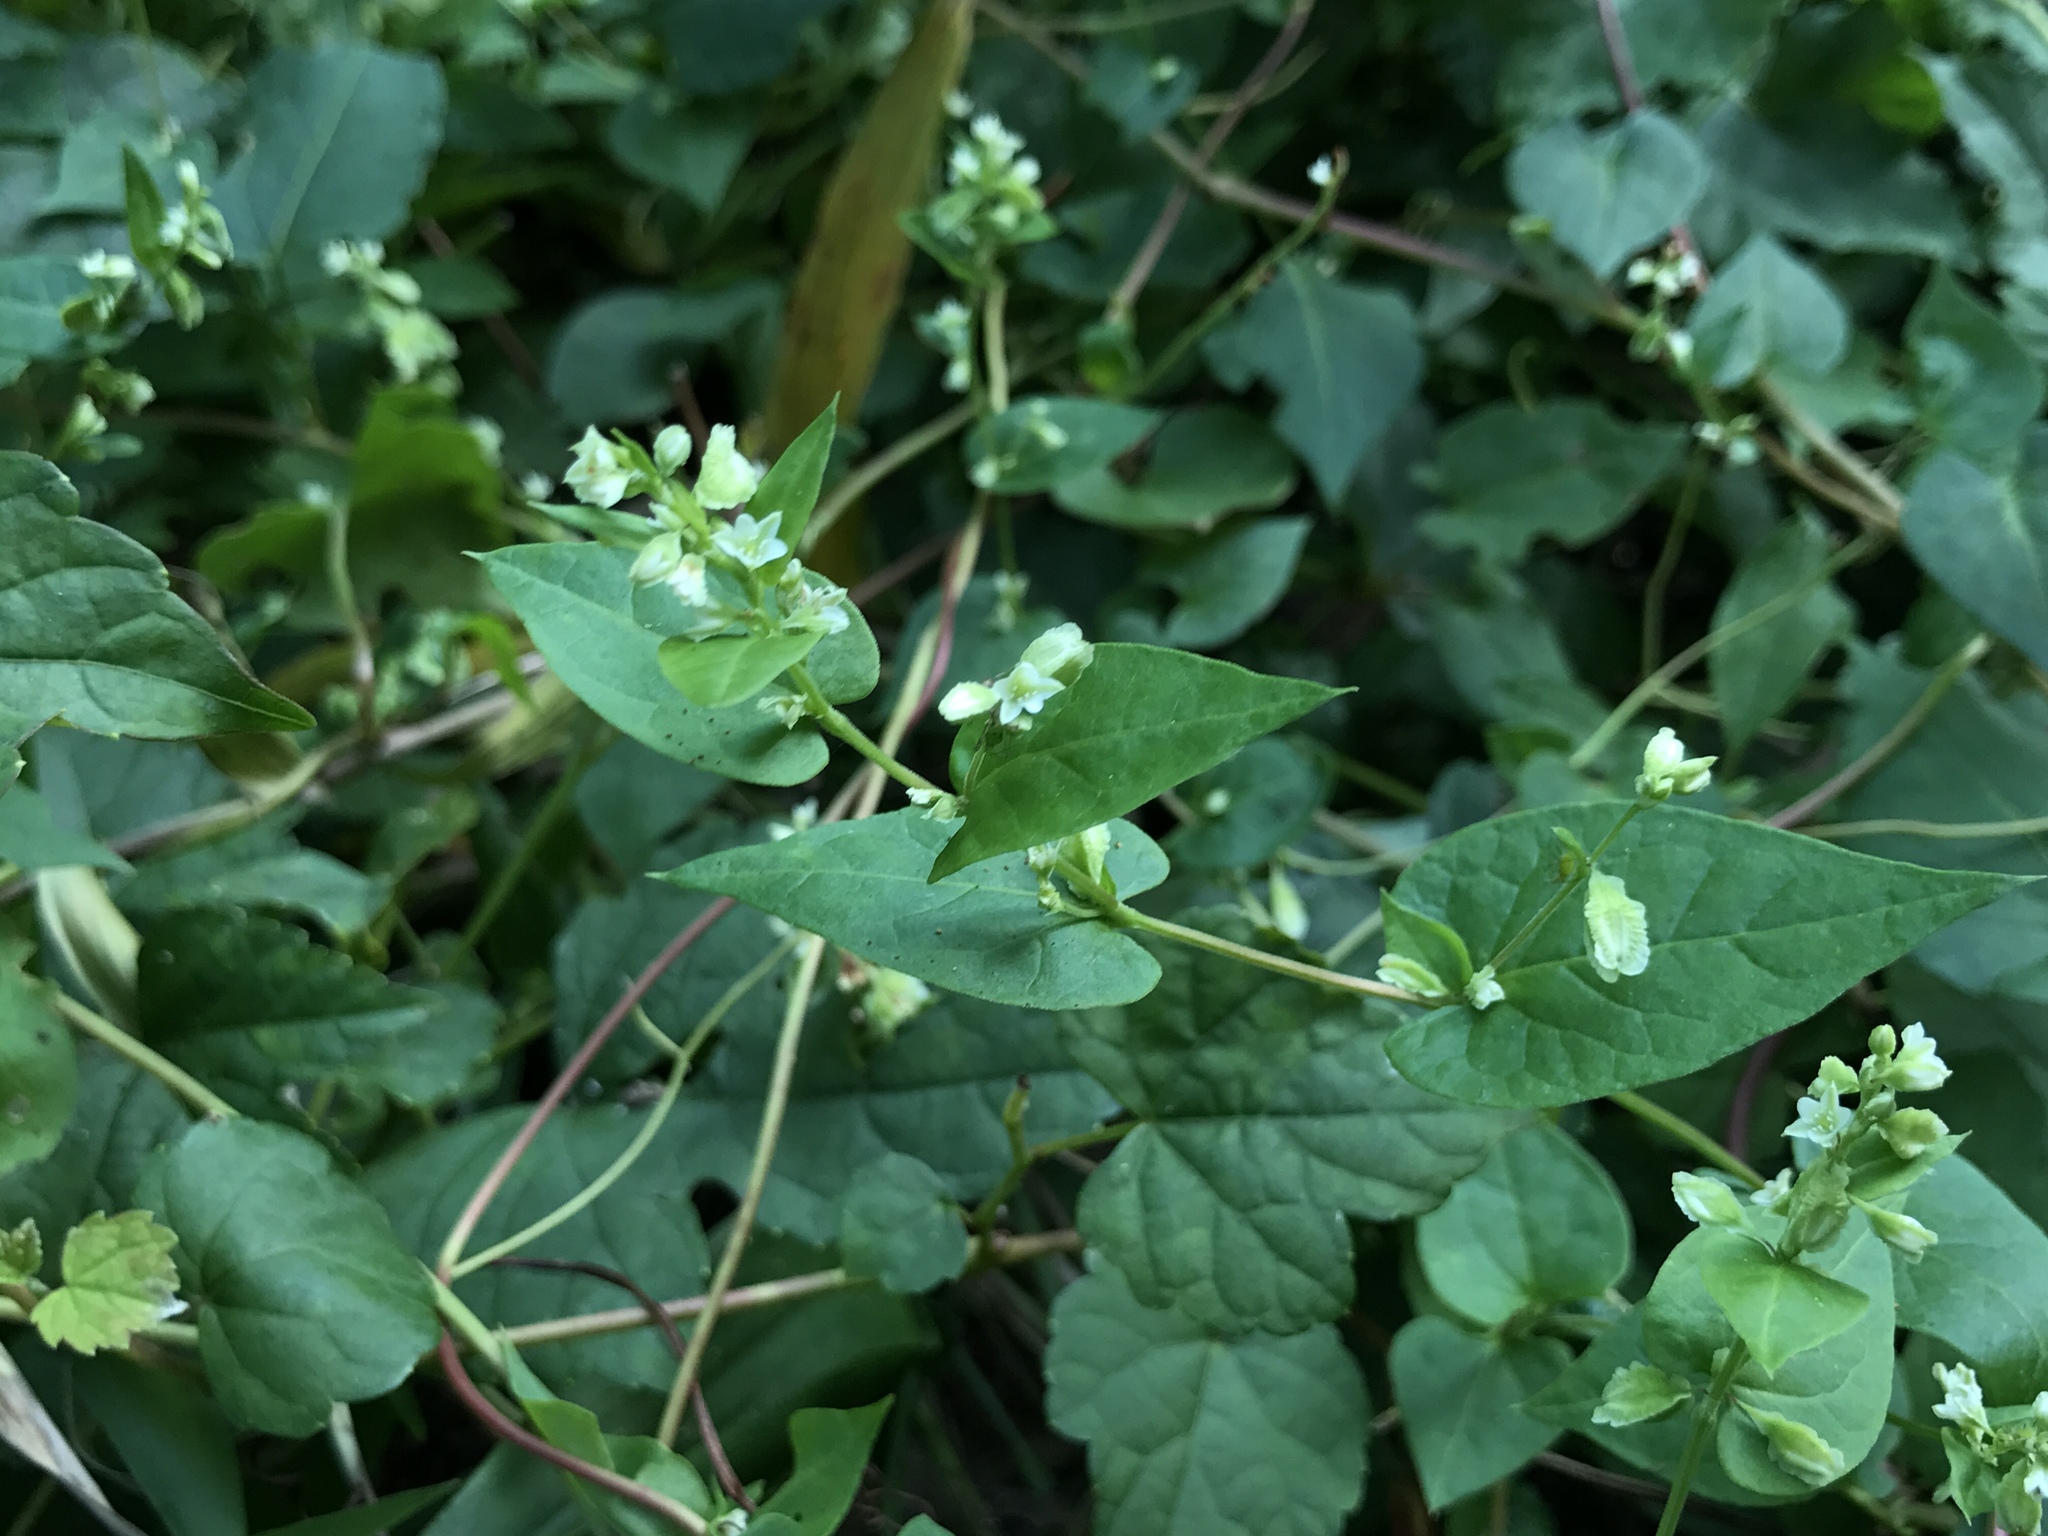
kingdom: Plantae
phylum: Tracheophyta
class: Magnoliopsida
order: Caryophyllales
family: Polygonaceae
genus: Fallopia
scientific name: Fallopia scandens
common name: Climbing false buckwheat
